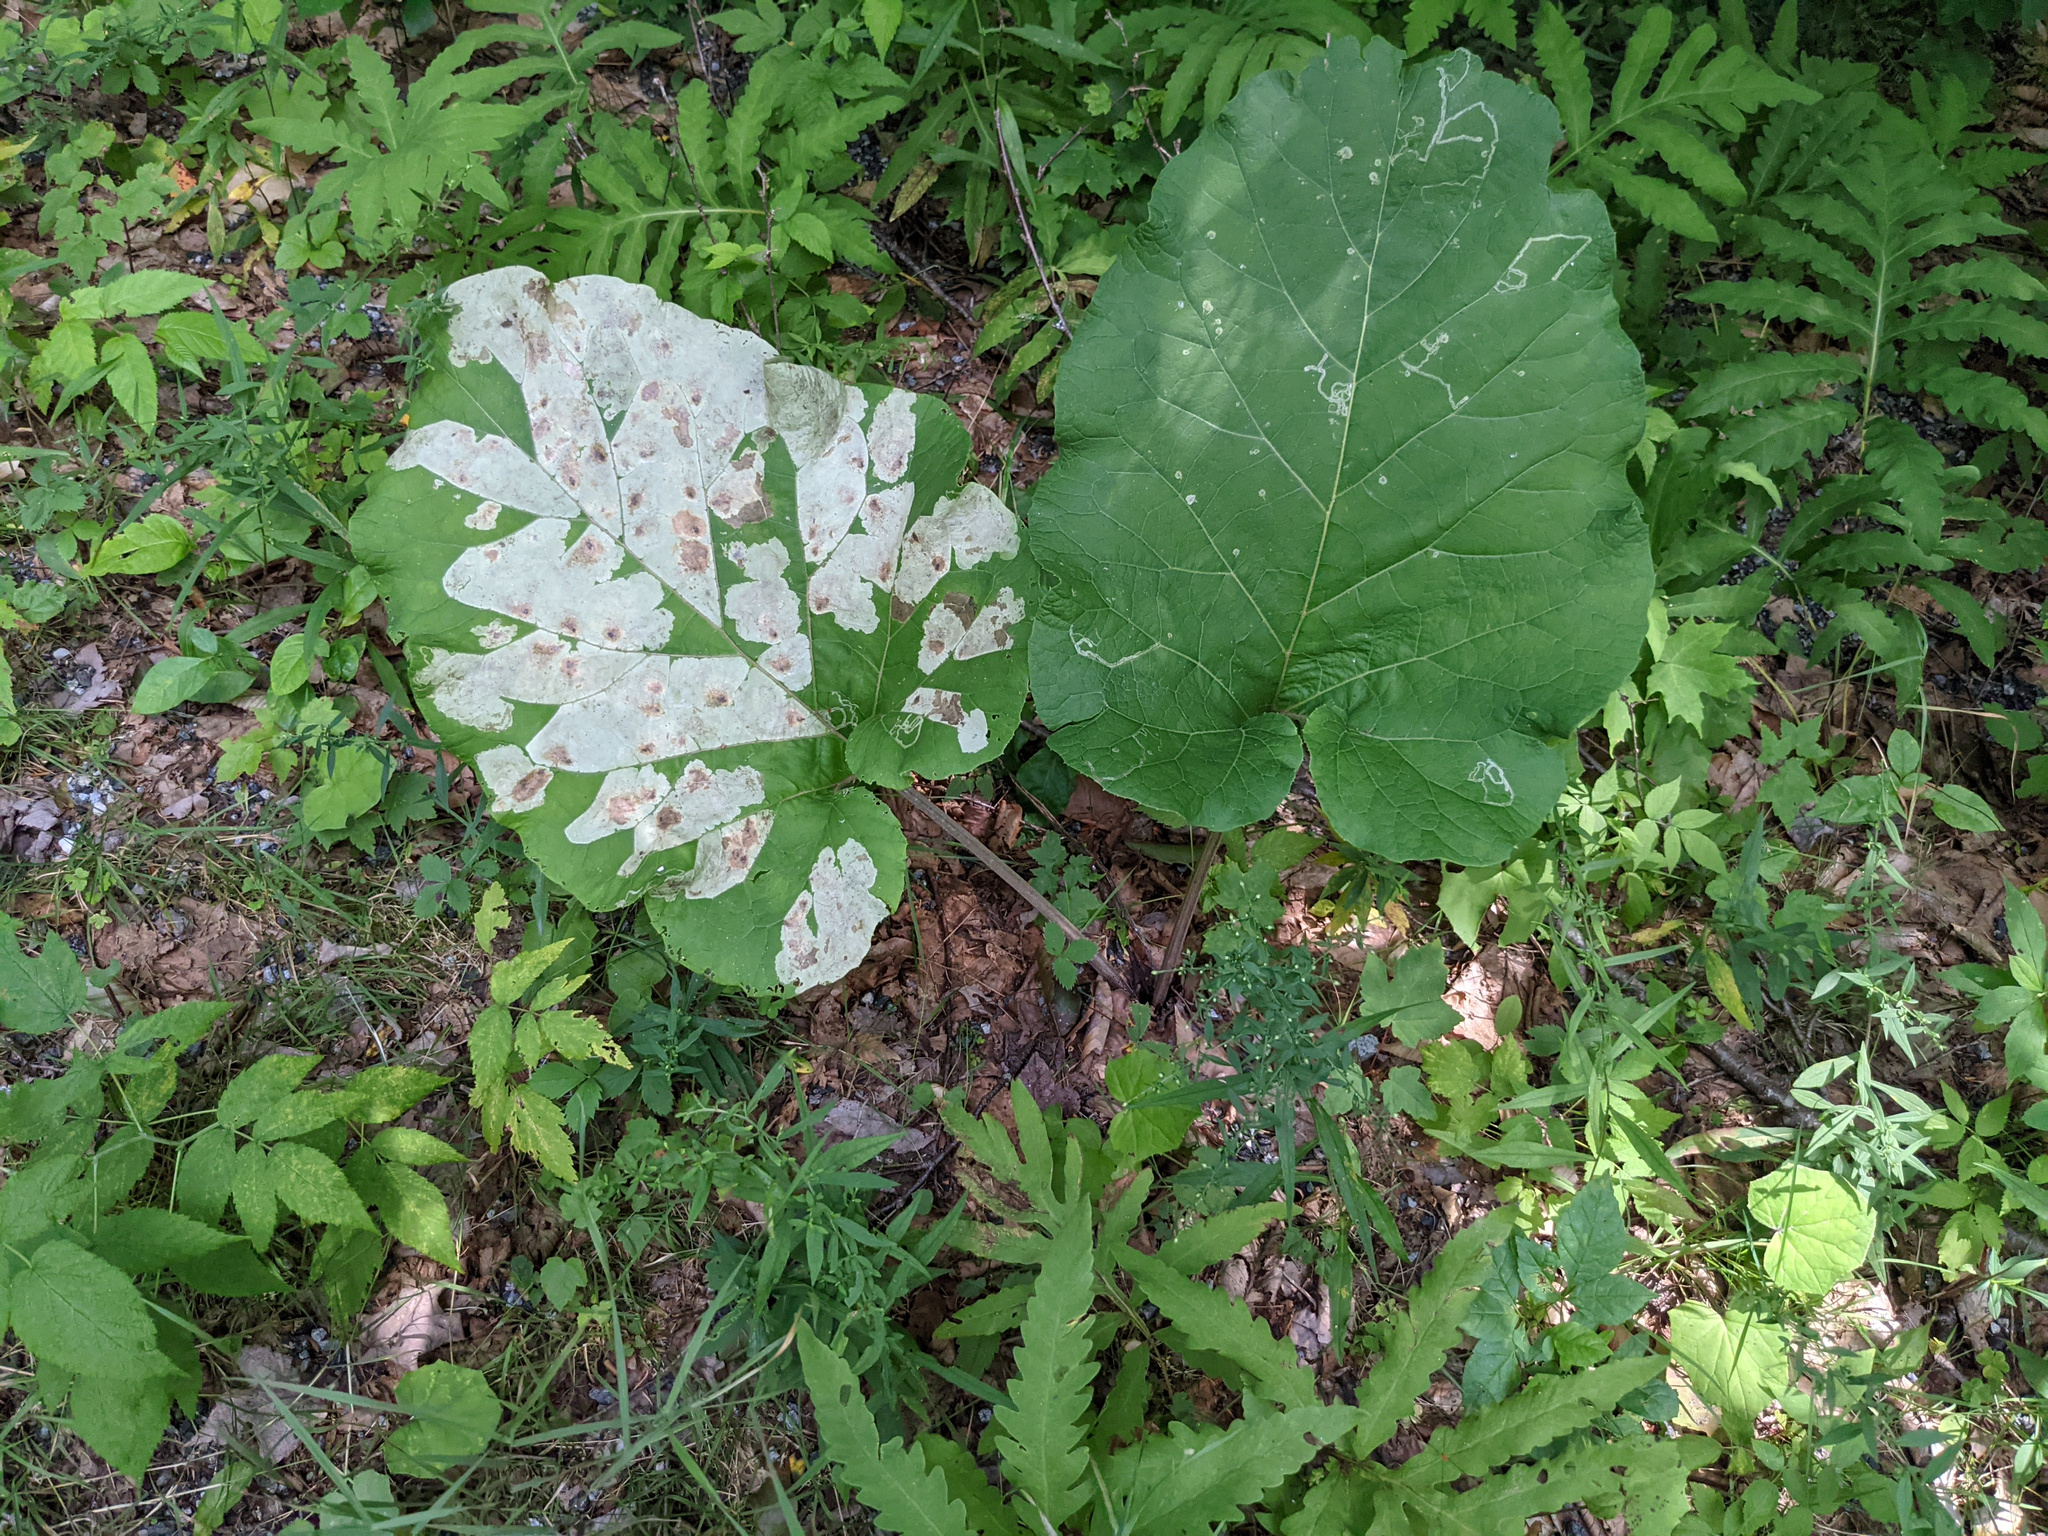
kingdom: Plantae
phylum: Tracheophyta
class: Magnoliopsida
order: Asterales
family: Asteraceae
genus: Arctium
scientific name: Arctium
